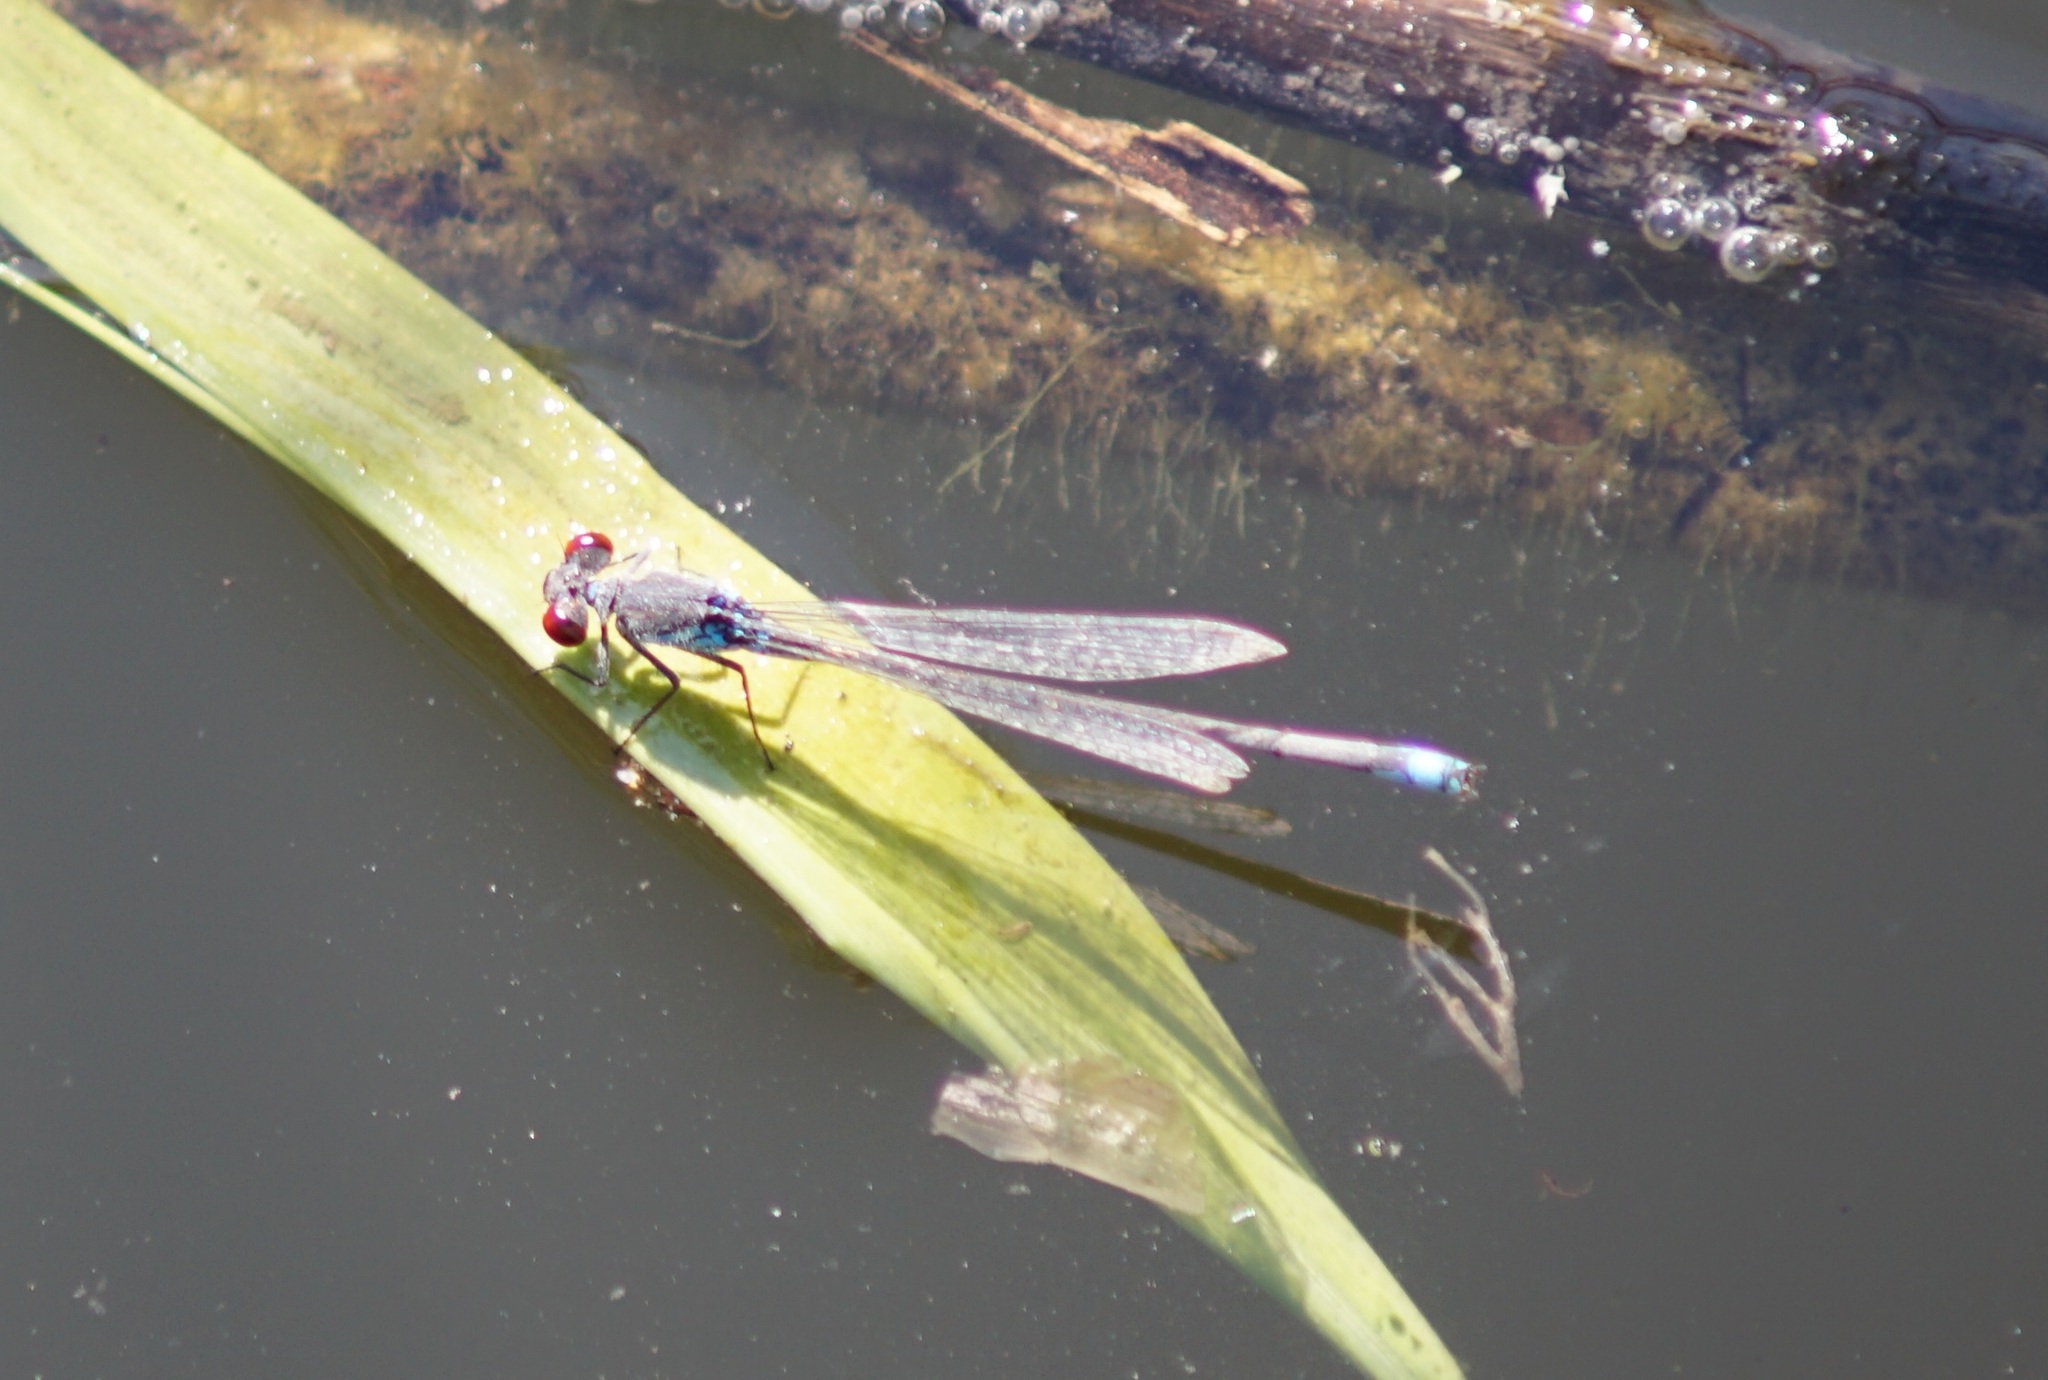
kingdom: Animalia
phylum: Arthropoda
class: Insecta
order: Odonata
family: Coenagrionidae
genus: Erythromma
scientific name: Erythromma viridulum
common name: Small red-eyed damselfly
